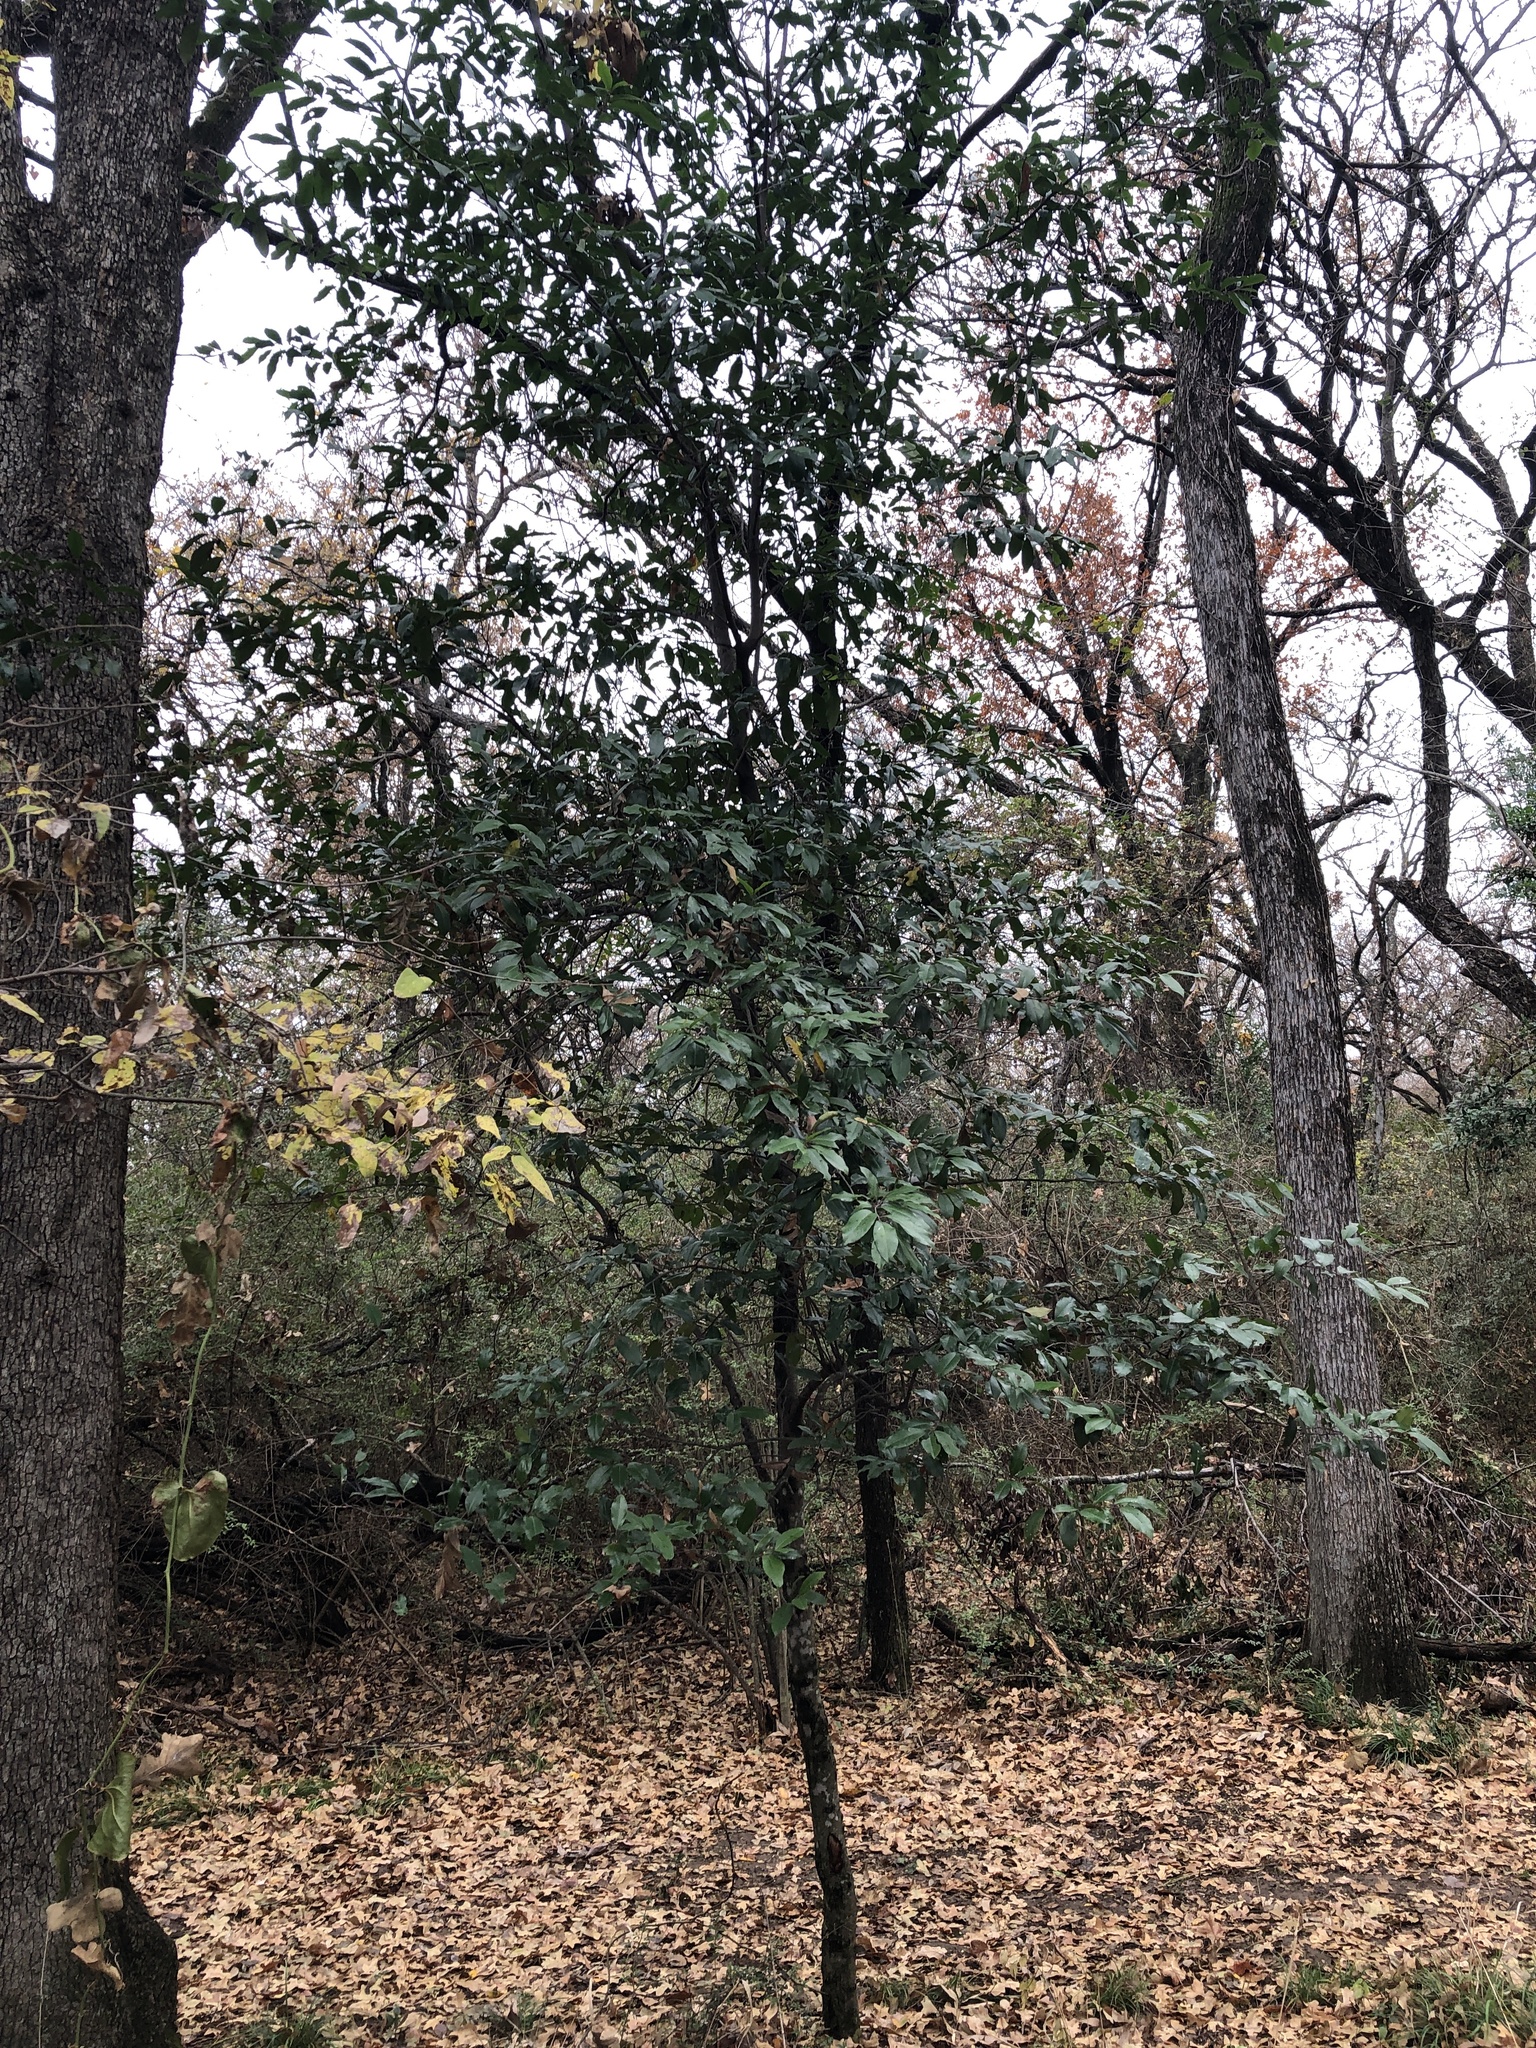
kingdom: Plantae
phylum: Tracheophyta
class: Magnoliopsida
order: Rosales
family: Rosaceae
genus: Prunus
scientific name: Prunus caroliniana
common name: Carolina laurel cherry
